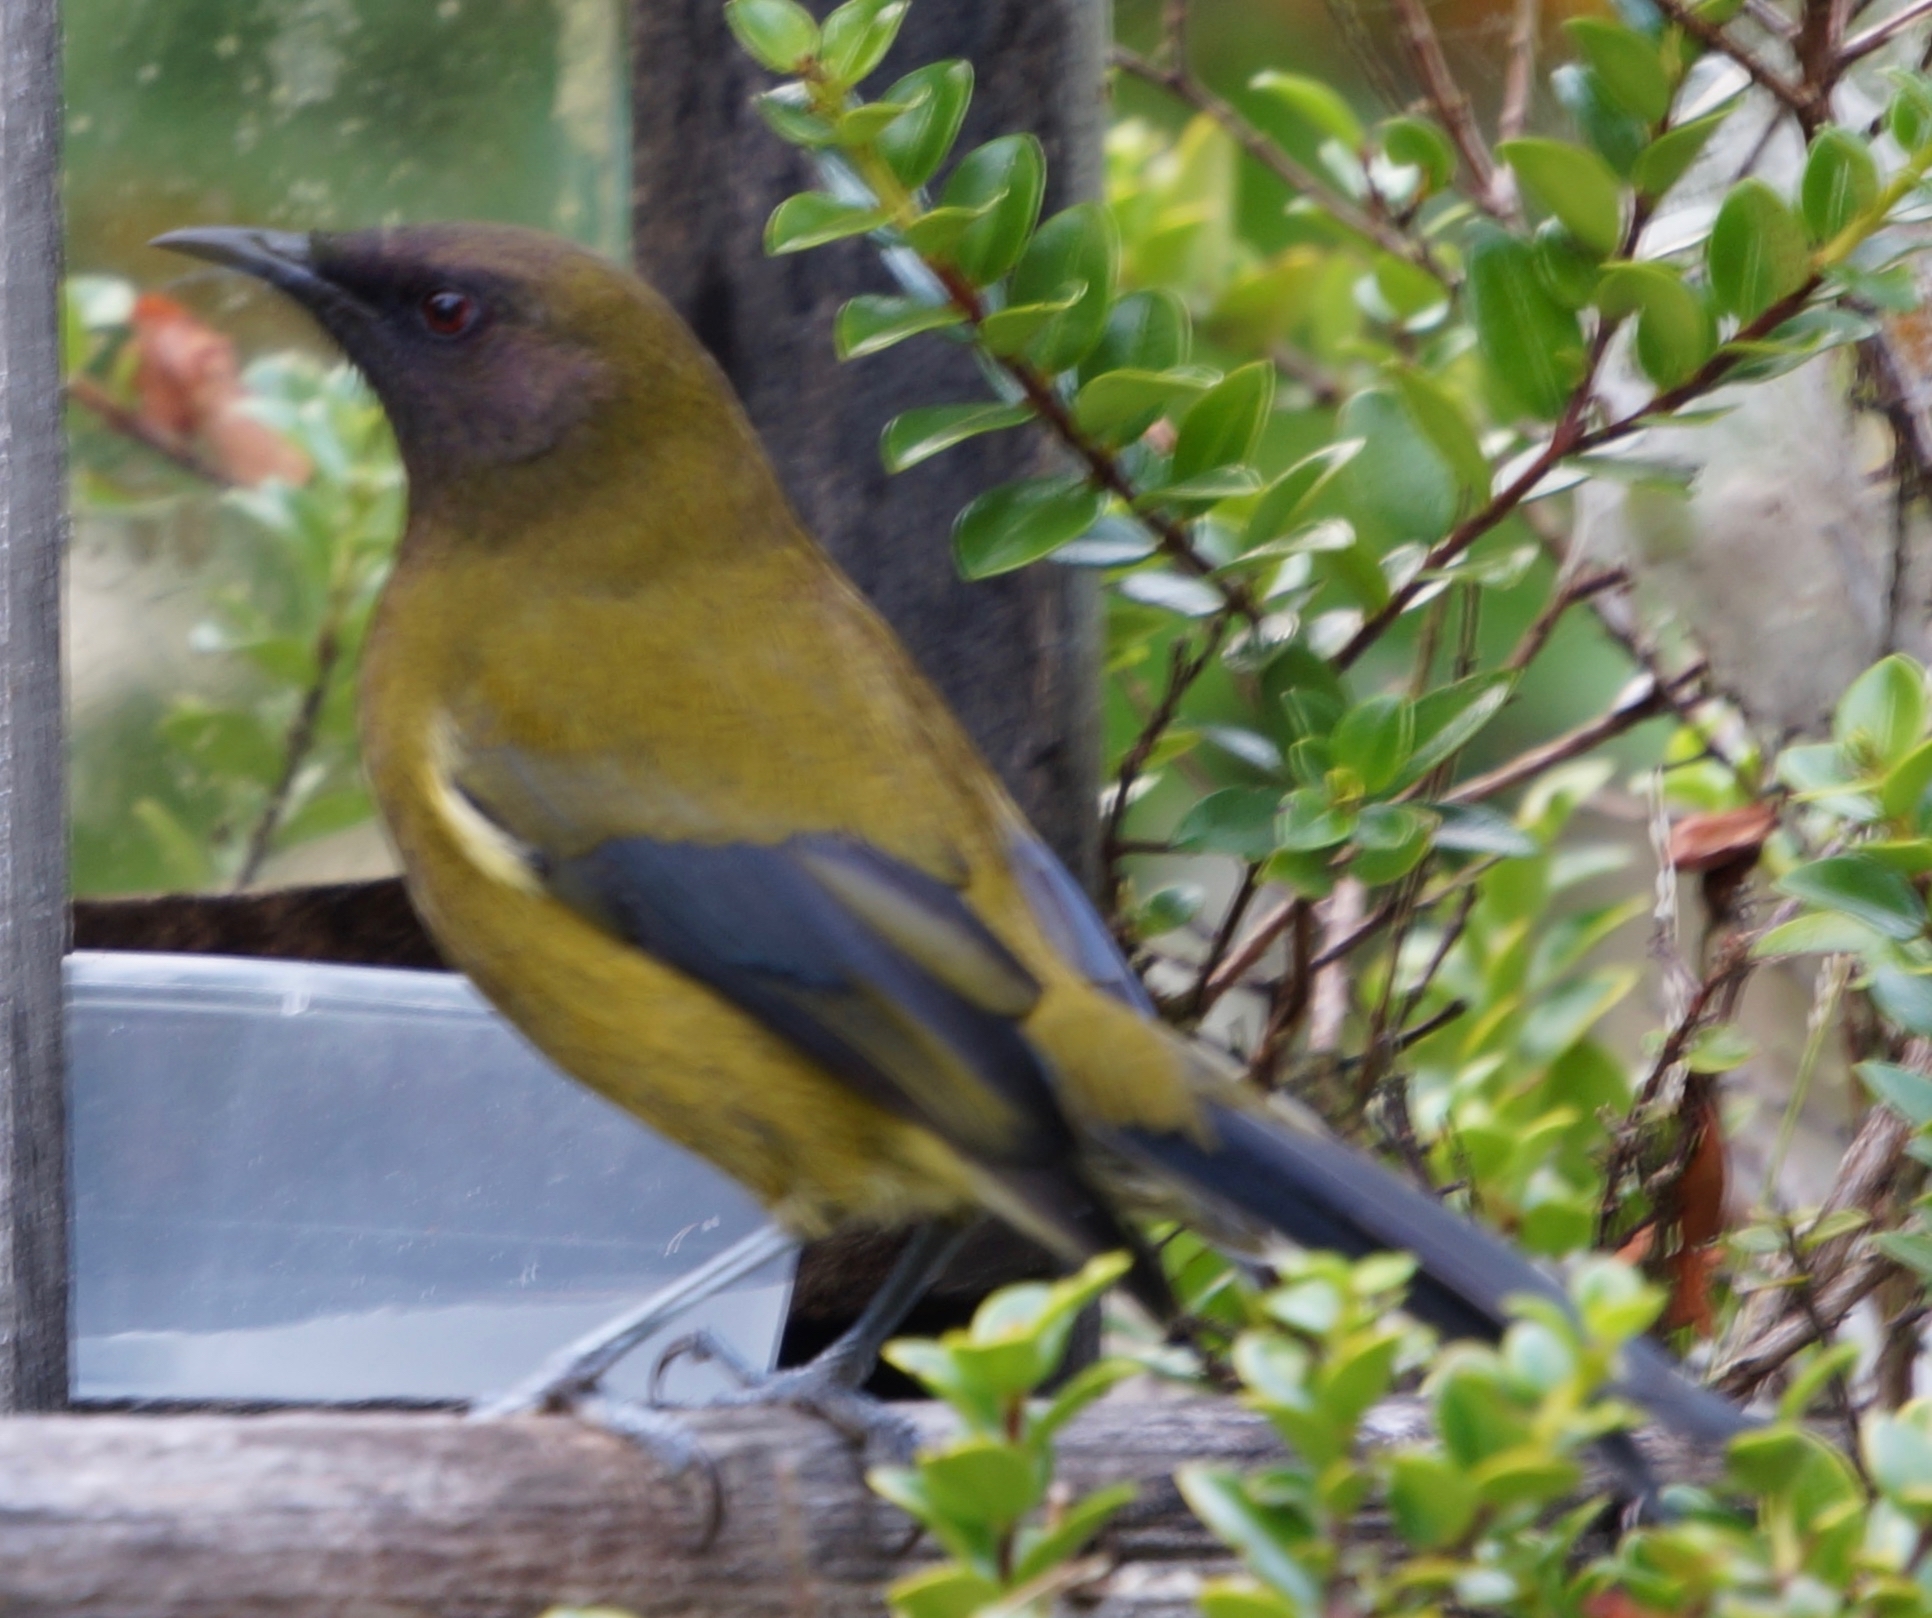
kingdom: Animalia
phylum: Chordata
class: Aves
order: Passeriformes
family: Meliphagidae
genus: Anthornis
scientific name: Anthornis melanura
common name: New zealand bellbird
